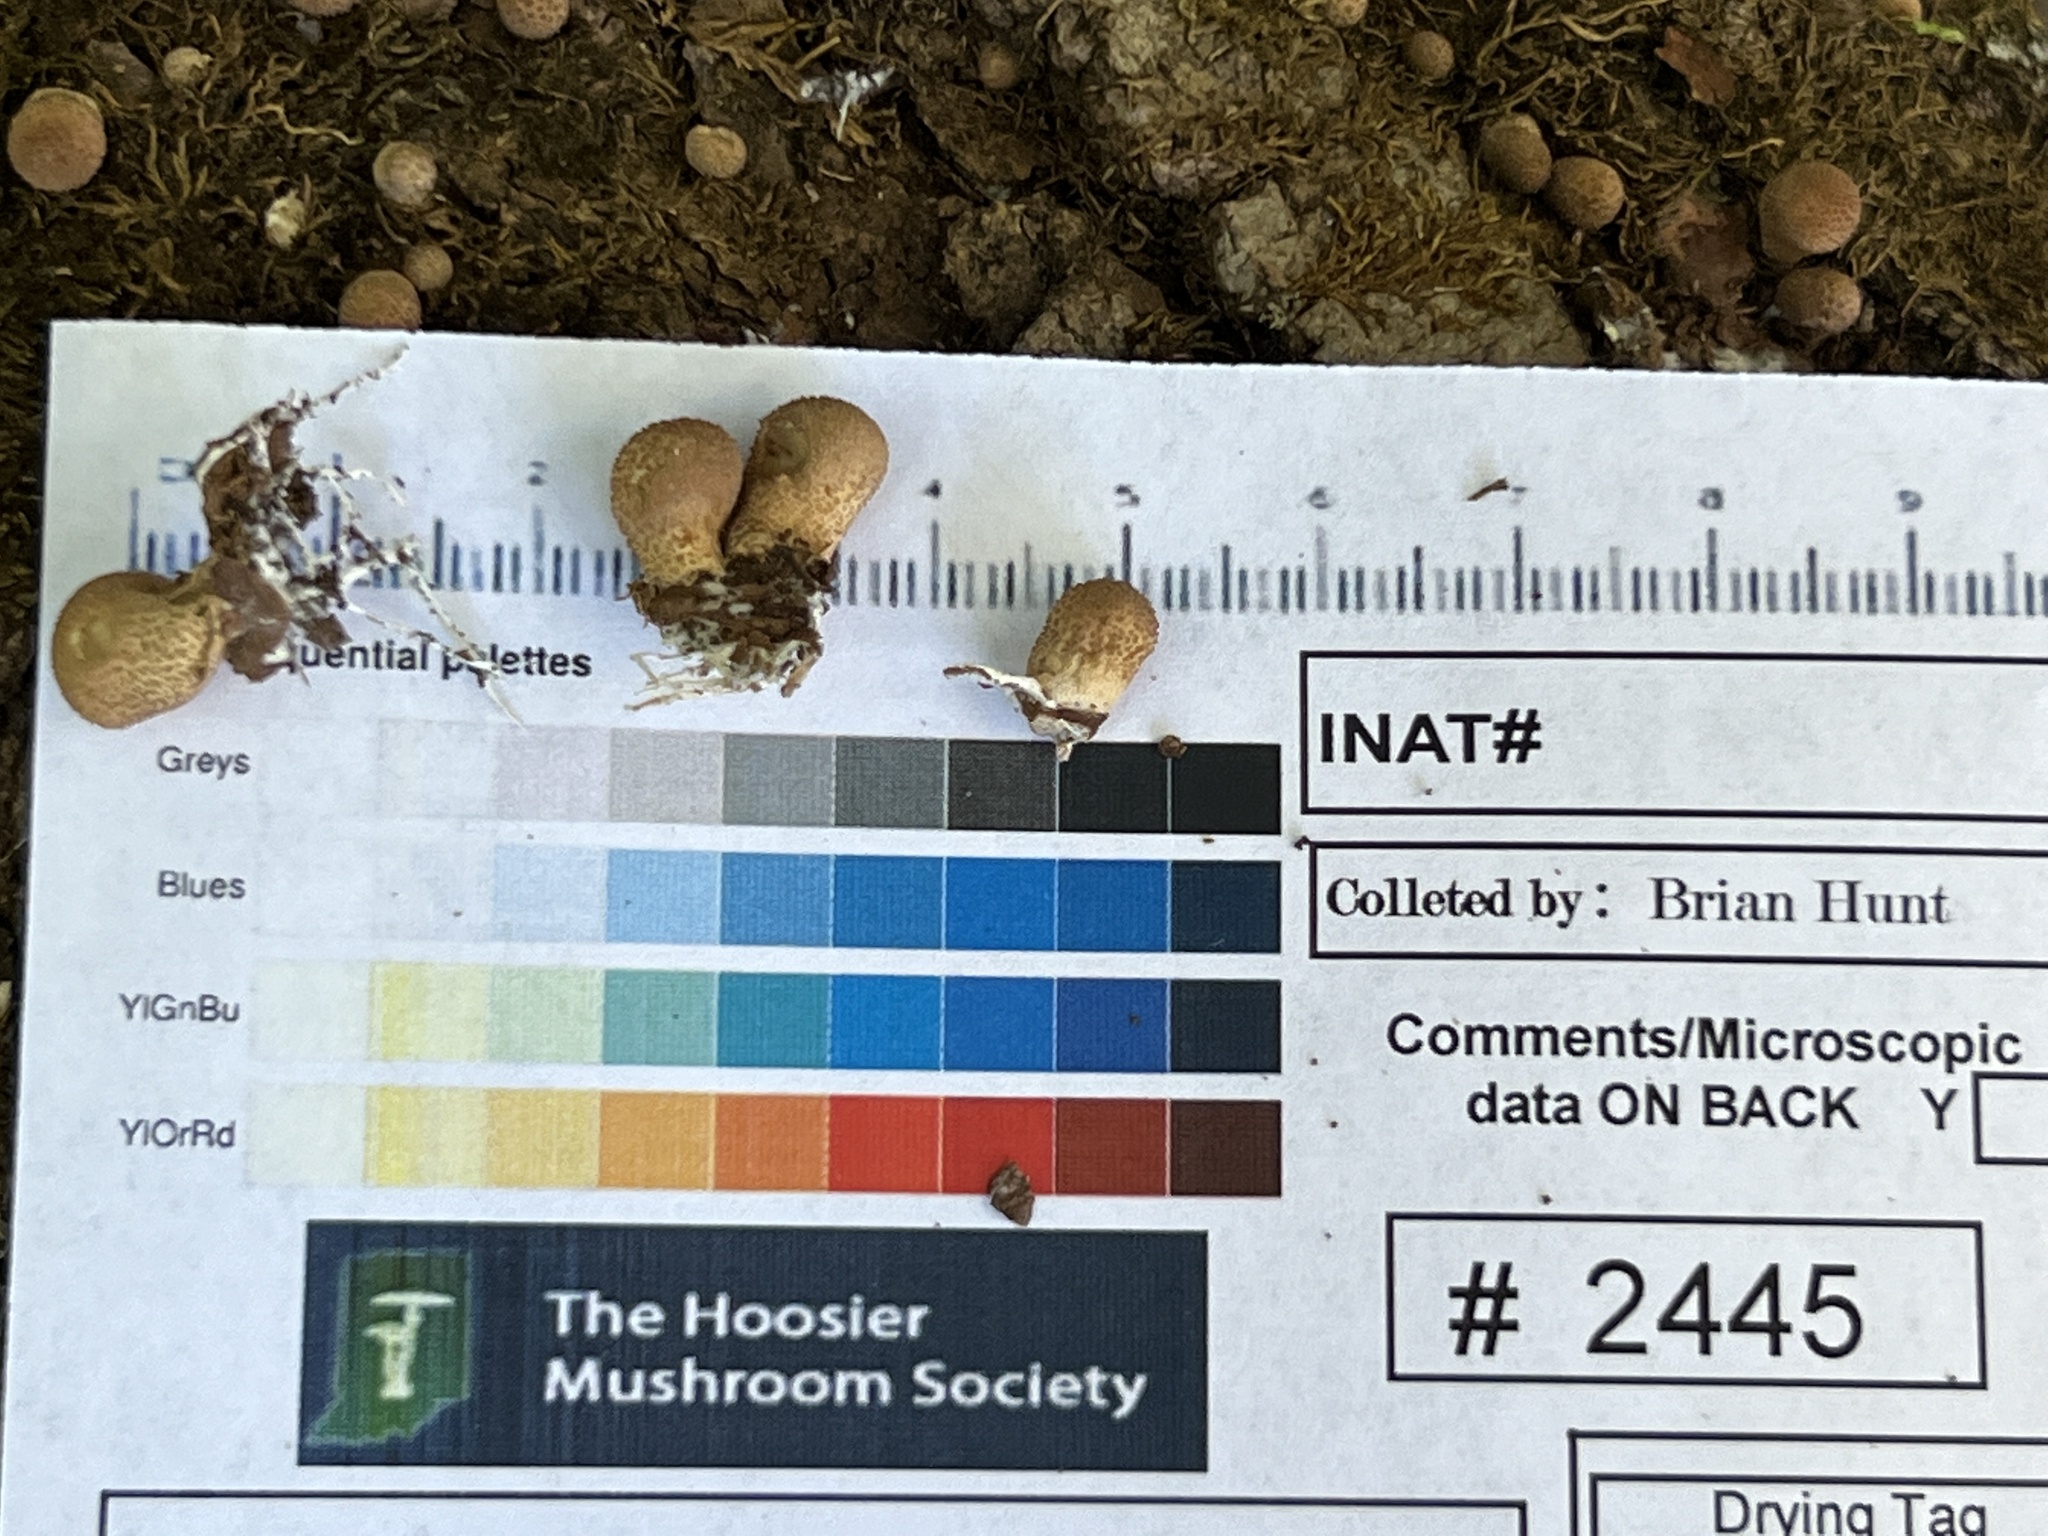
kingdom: Fungi
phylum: Basidiomycota
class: Agaricomycetes
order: Agaricales
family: Lycoperdaceae
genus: Apioperdon
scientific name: Apioperdon pyriforme
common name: Pear-shaped puffball
